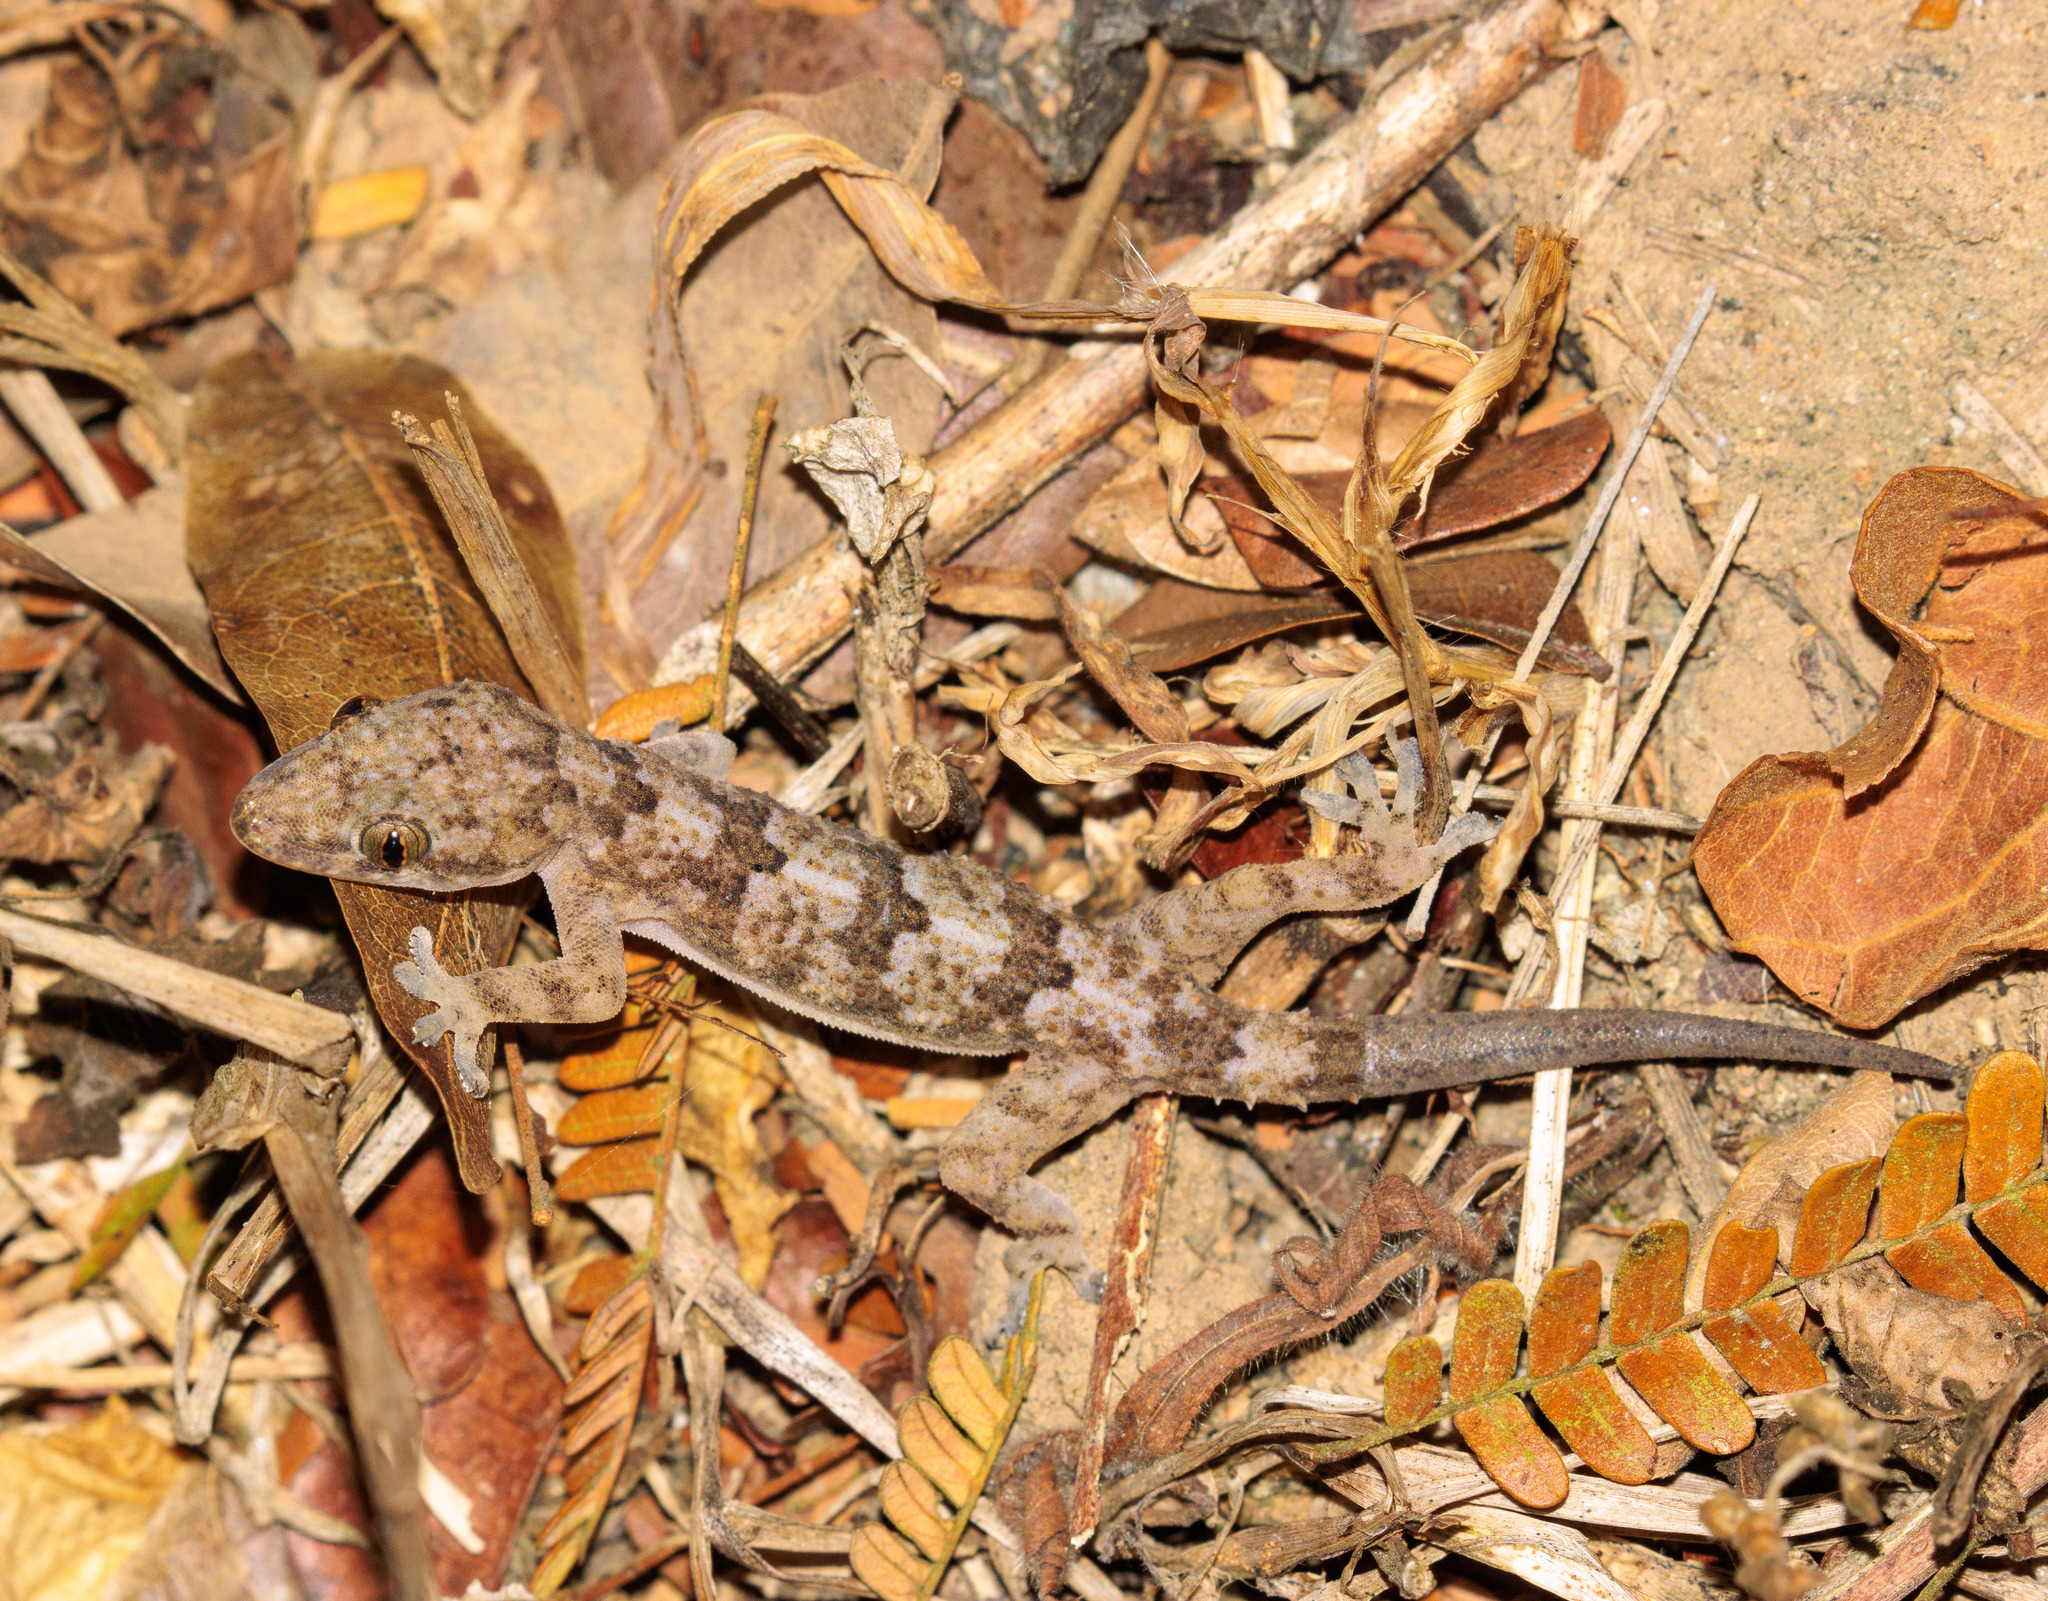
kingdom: Animalia
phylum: Chordata
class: Squamata
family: Gekkonidae
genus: Hemidactylus
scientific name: Hemidactylus mabouia
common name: House gecko
